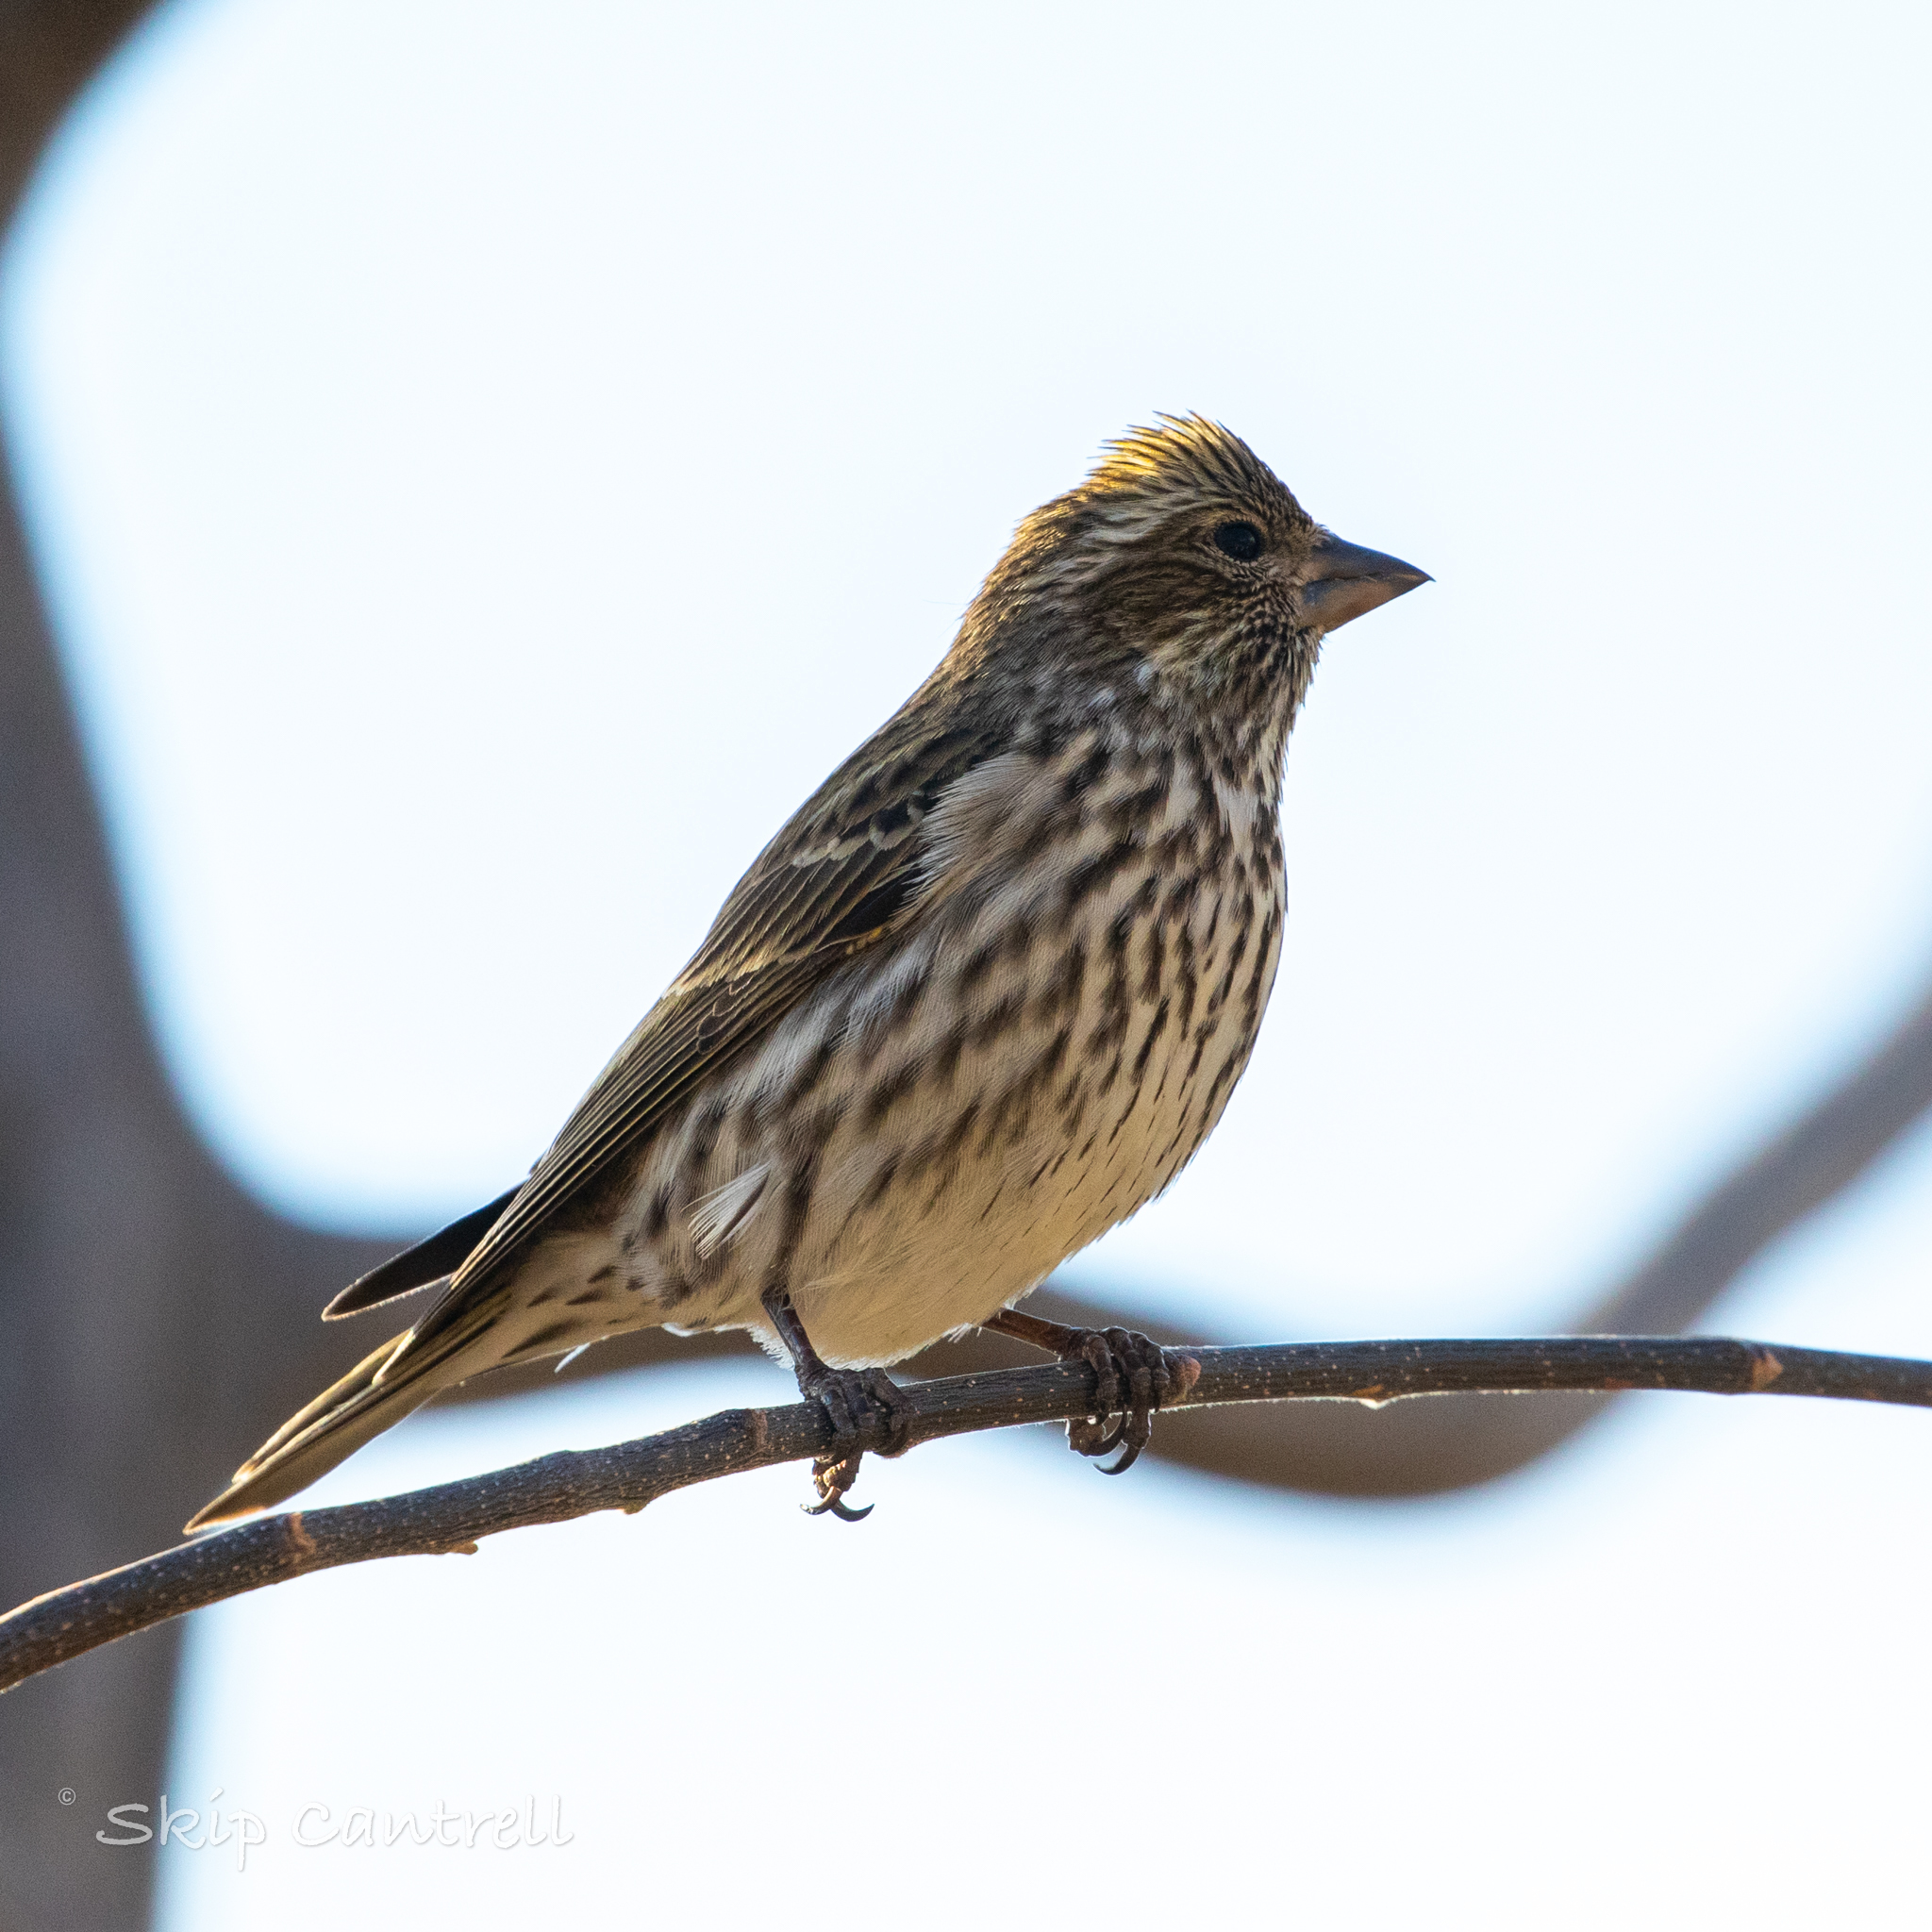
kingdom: Animalia
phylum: Chordata
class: Aves
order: Passeriformes
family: Fringillidae
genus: Haemorhous
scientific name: Haemorhous cassinii
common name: Cassin's finch
